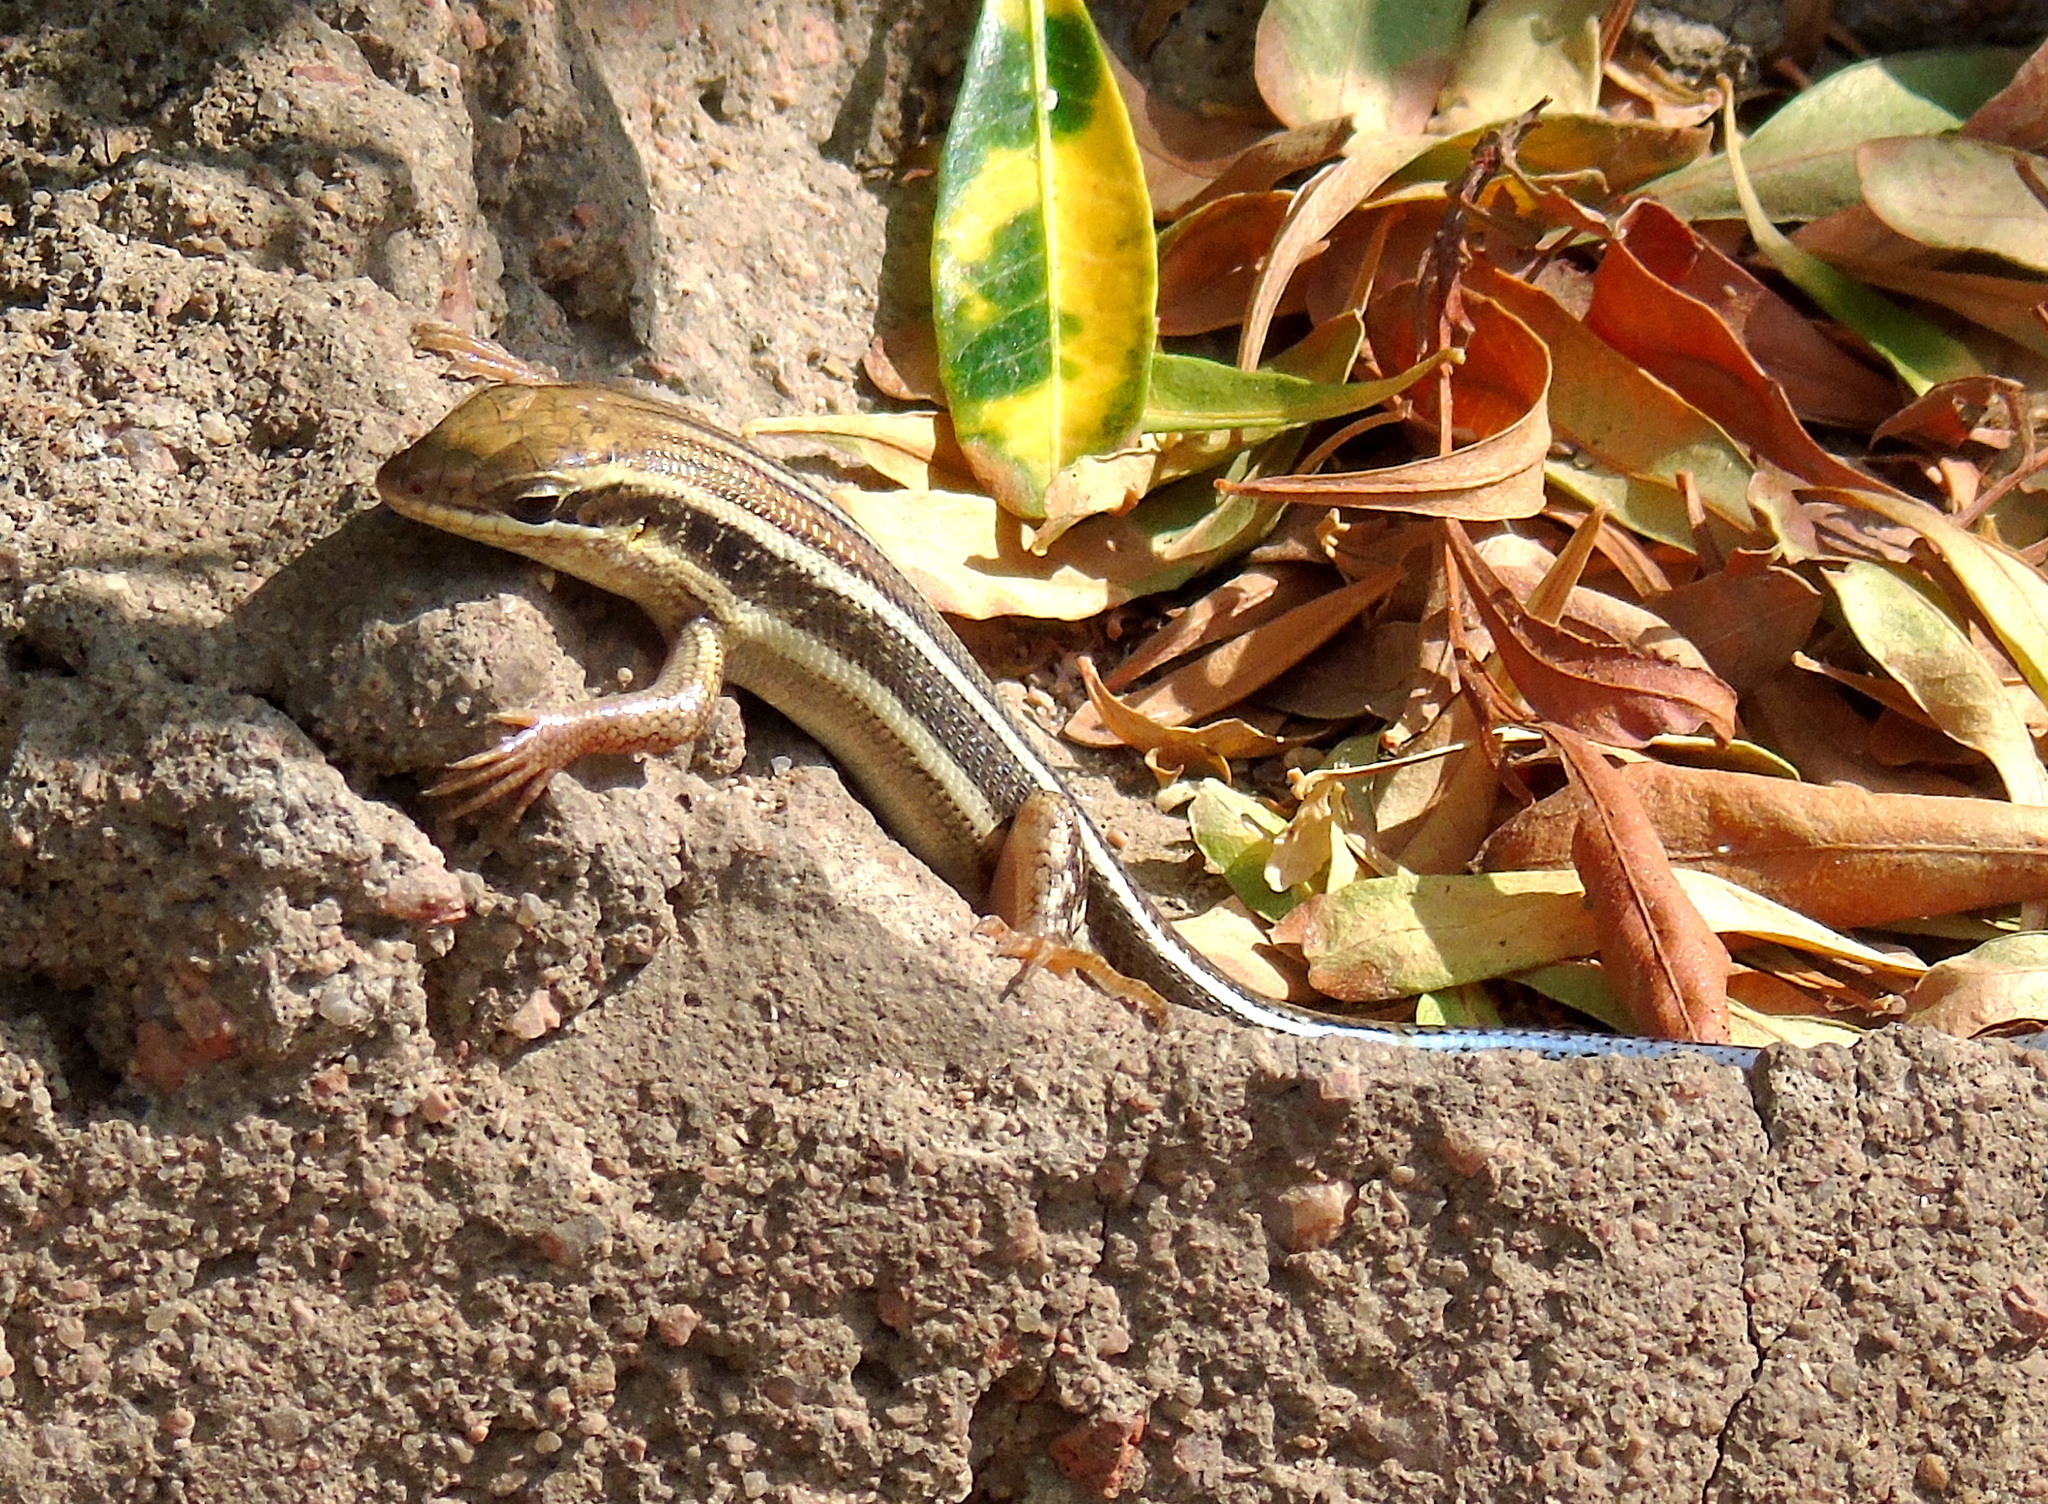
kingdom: Animalia
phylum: Chordata
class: Squamata
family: Scincidae
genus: Trachylepis
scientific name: Trachylepis quinquetaeniata
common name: African five-lined skink
